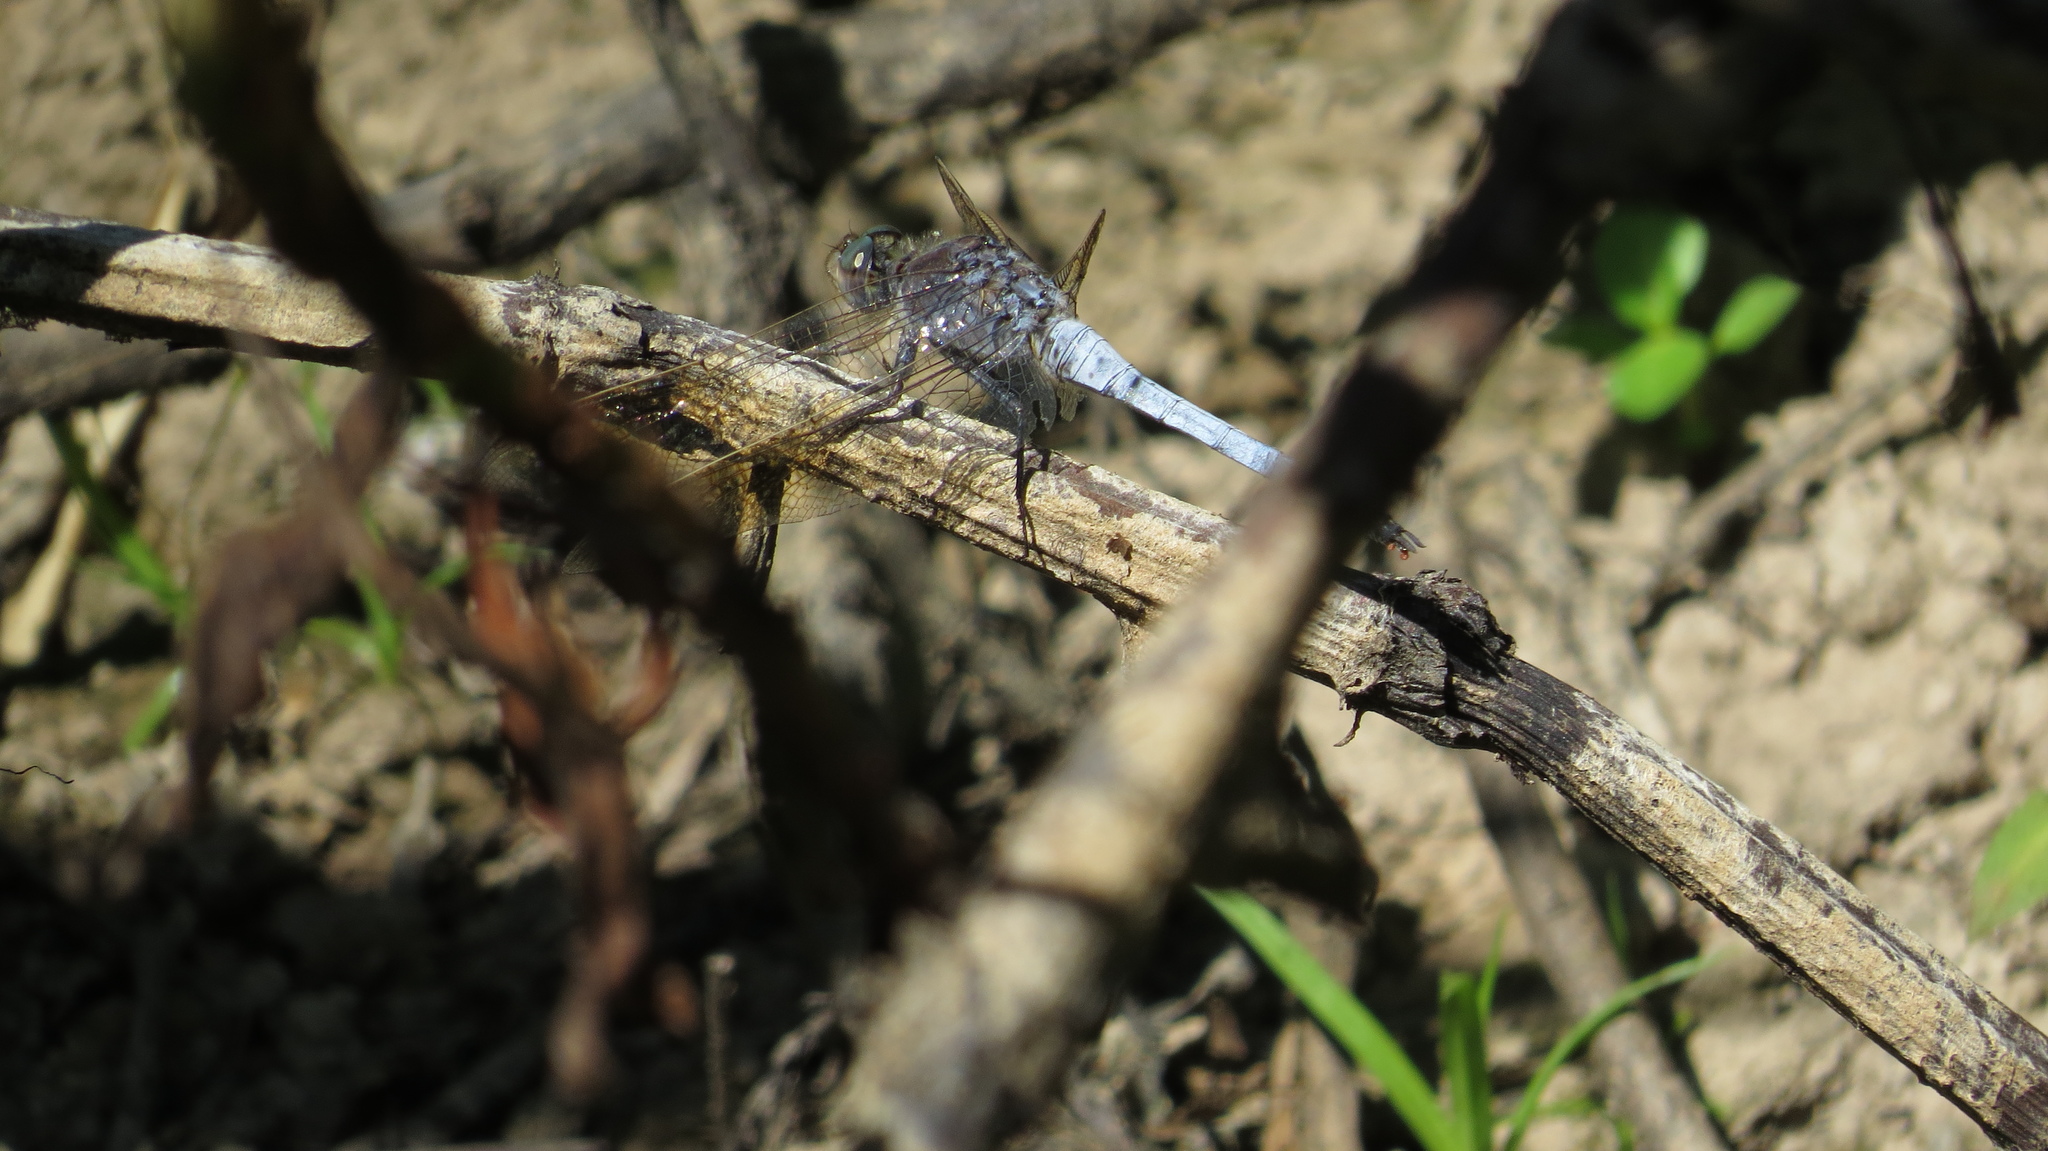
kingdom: Animalia
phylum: Arthropoda
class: Insecta
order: Odonata
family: Libellulidae
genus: Orthetrum
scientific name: Orthetrum caledonicum
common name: Blue skimmer
